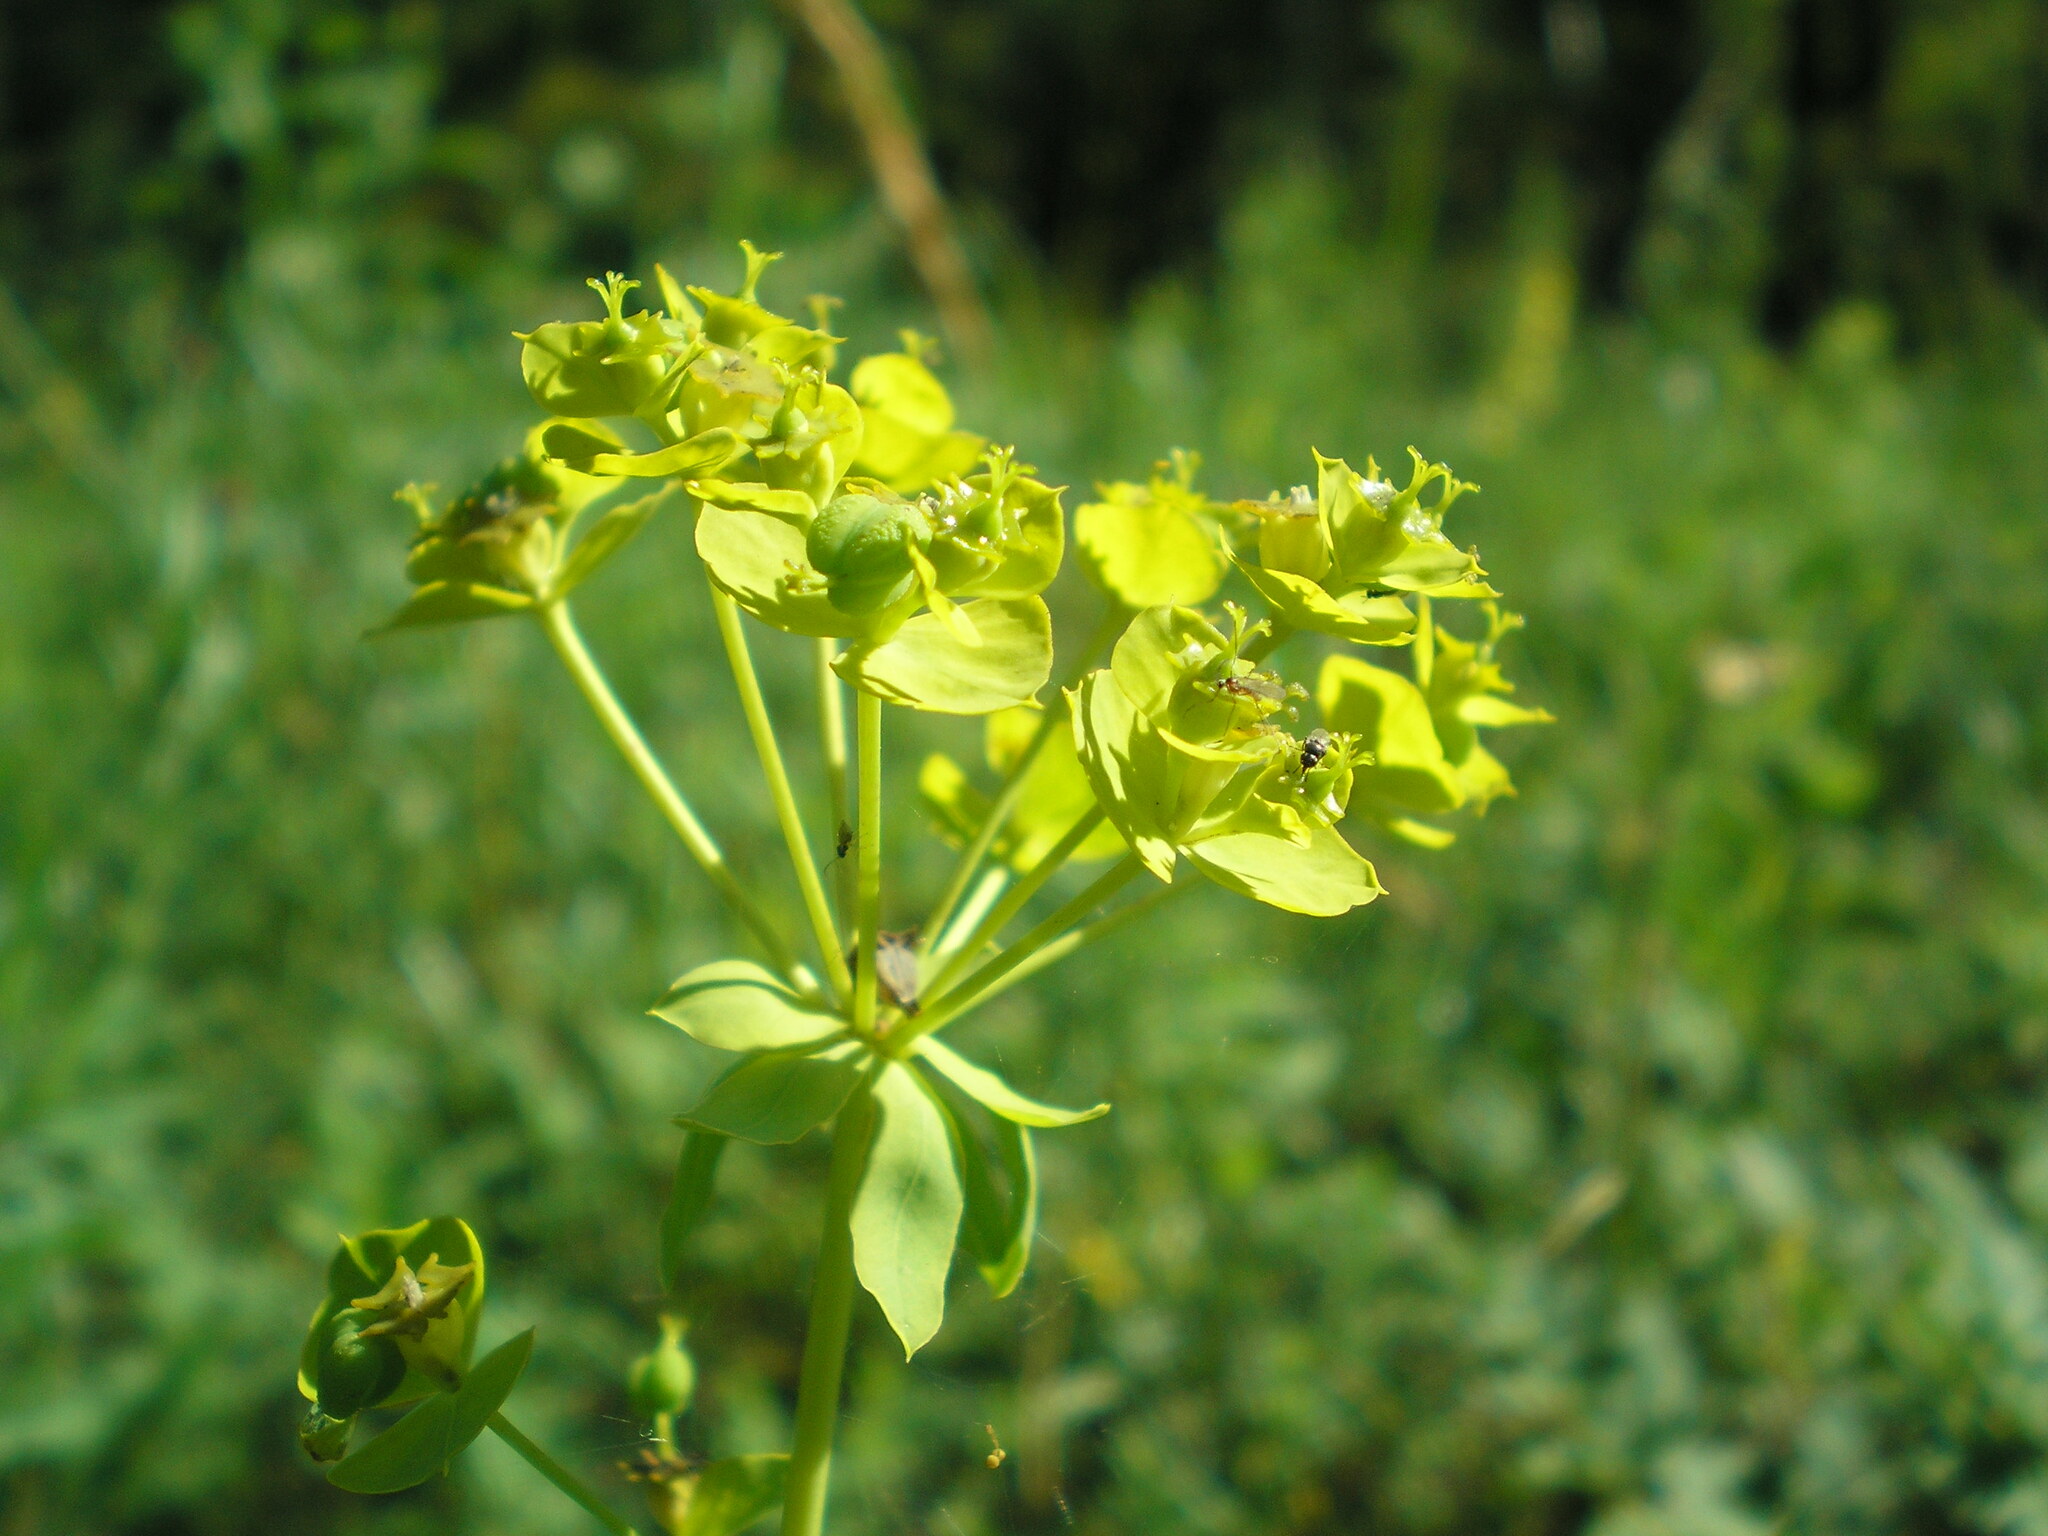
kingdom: Plantae
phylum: Tracheophyta
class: Magnoliopsida
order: Malpighiales
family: Euphorbiaceae
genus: Euphorbia
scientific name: Euphorbia virgata
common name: Leafy spurge
